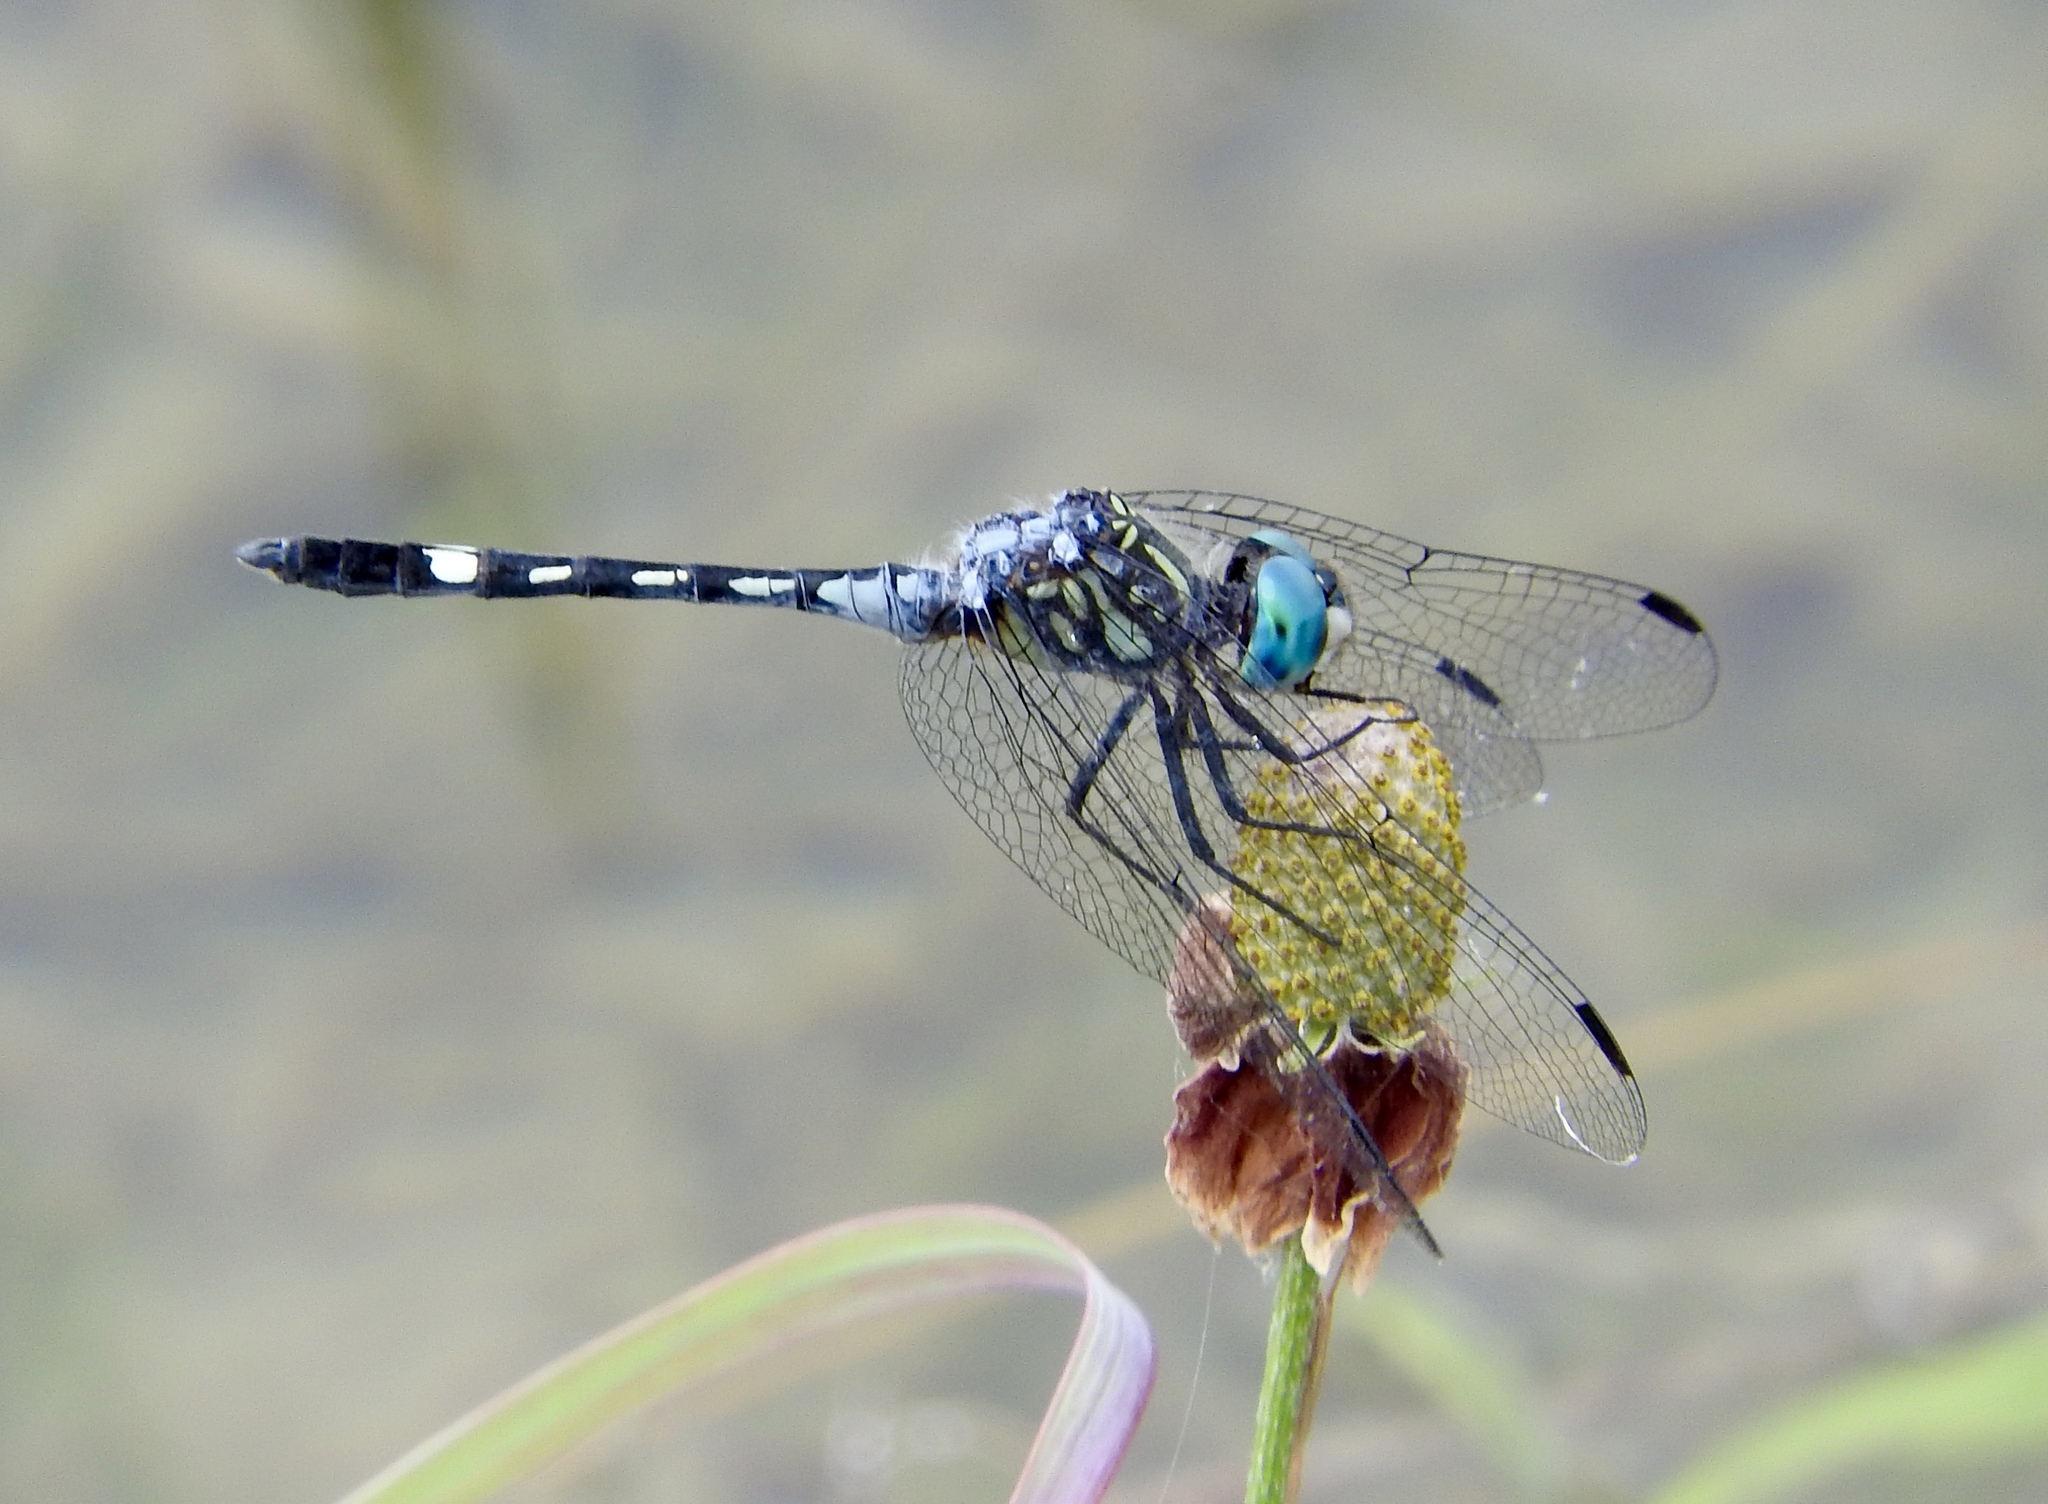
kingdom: Animalia
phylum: Arthropoda
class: Insecta
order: Odonata
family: Libellulidae
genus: Micrathyria
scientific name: Micrathyria hagenii
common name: Thornbush dasher
